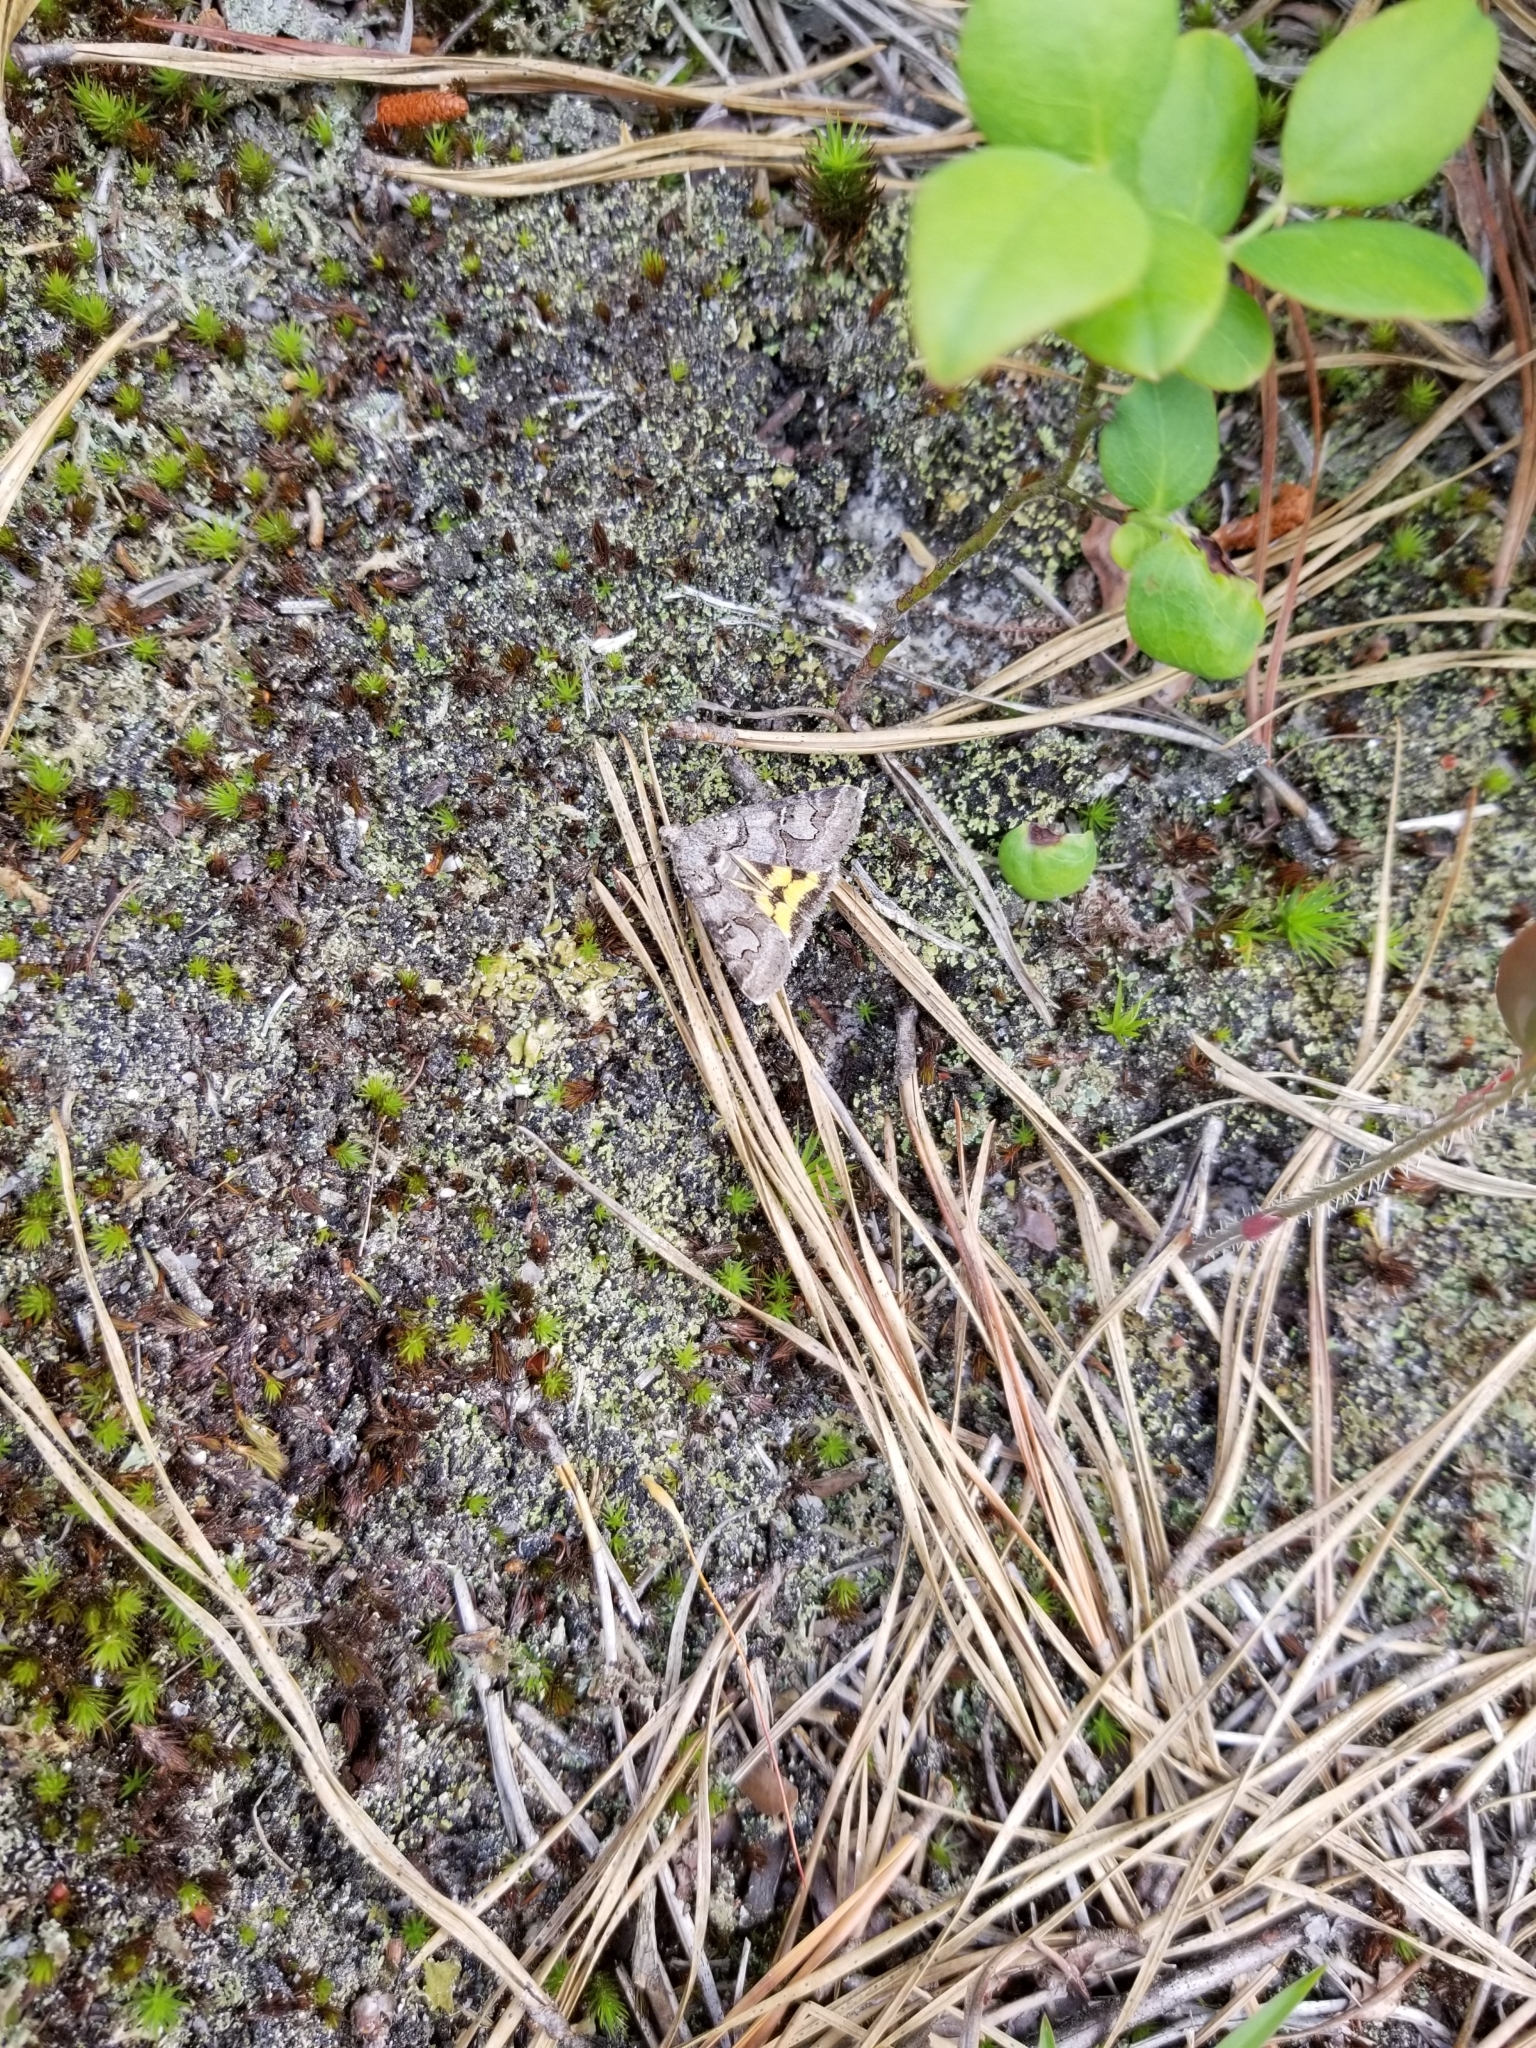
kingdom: Animalia
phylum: Arthropoda
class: Insecta
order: Lepidoptera
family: Erebidae
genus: Drasteria
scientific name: Drasteria graphica
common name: Coastal graphic
